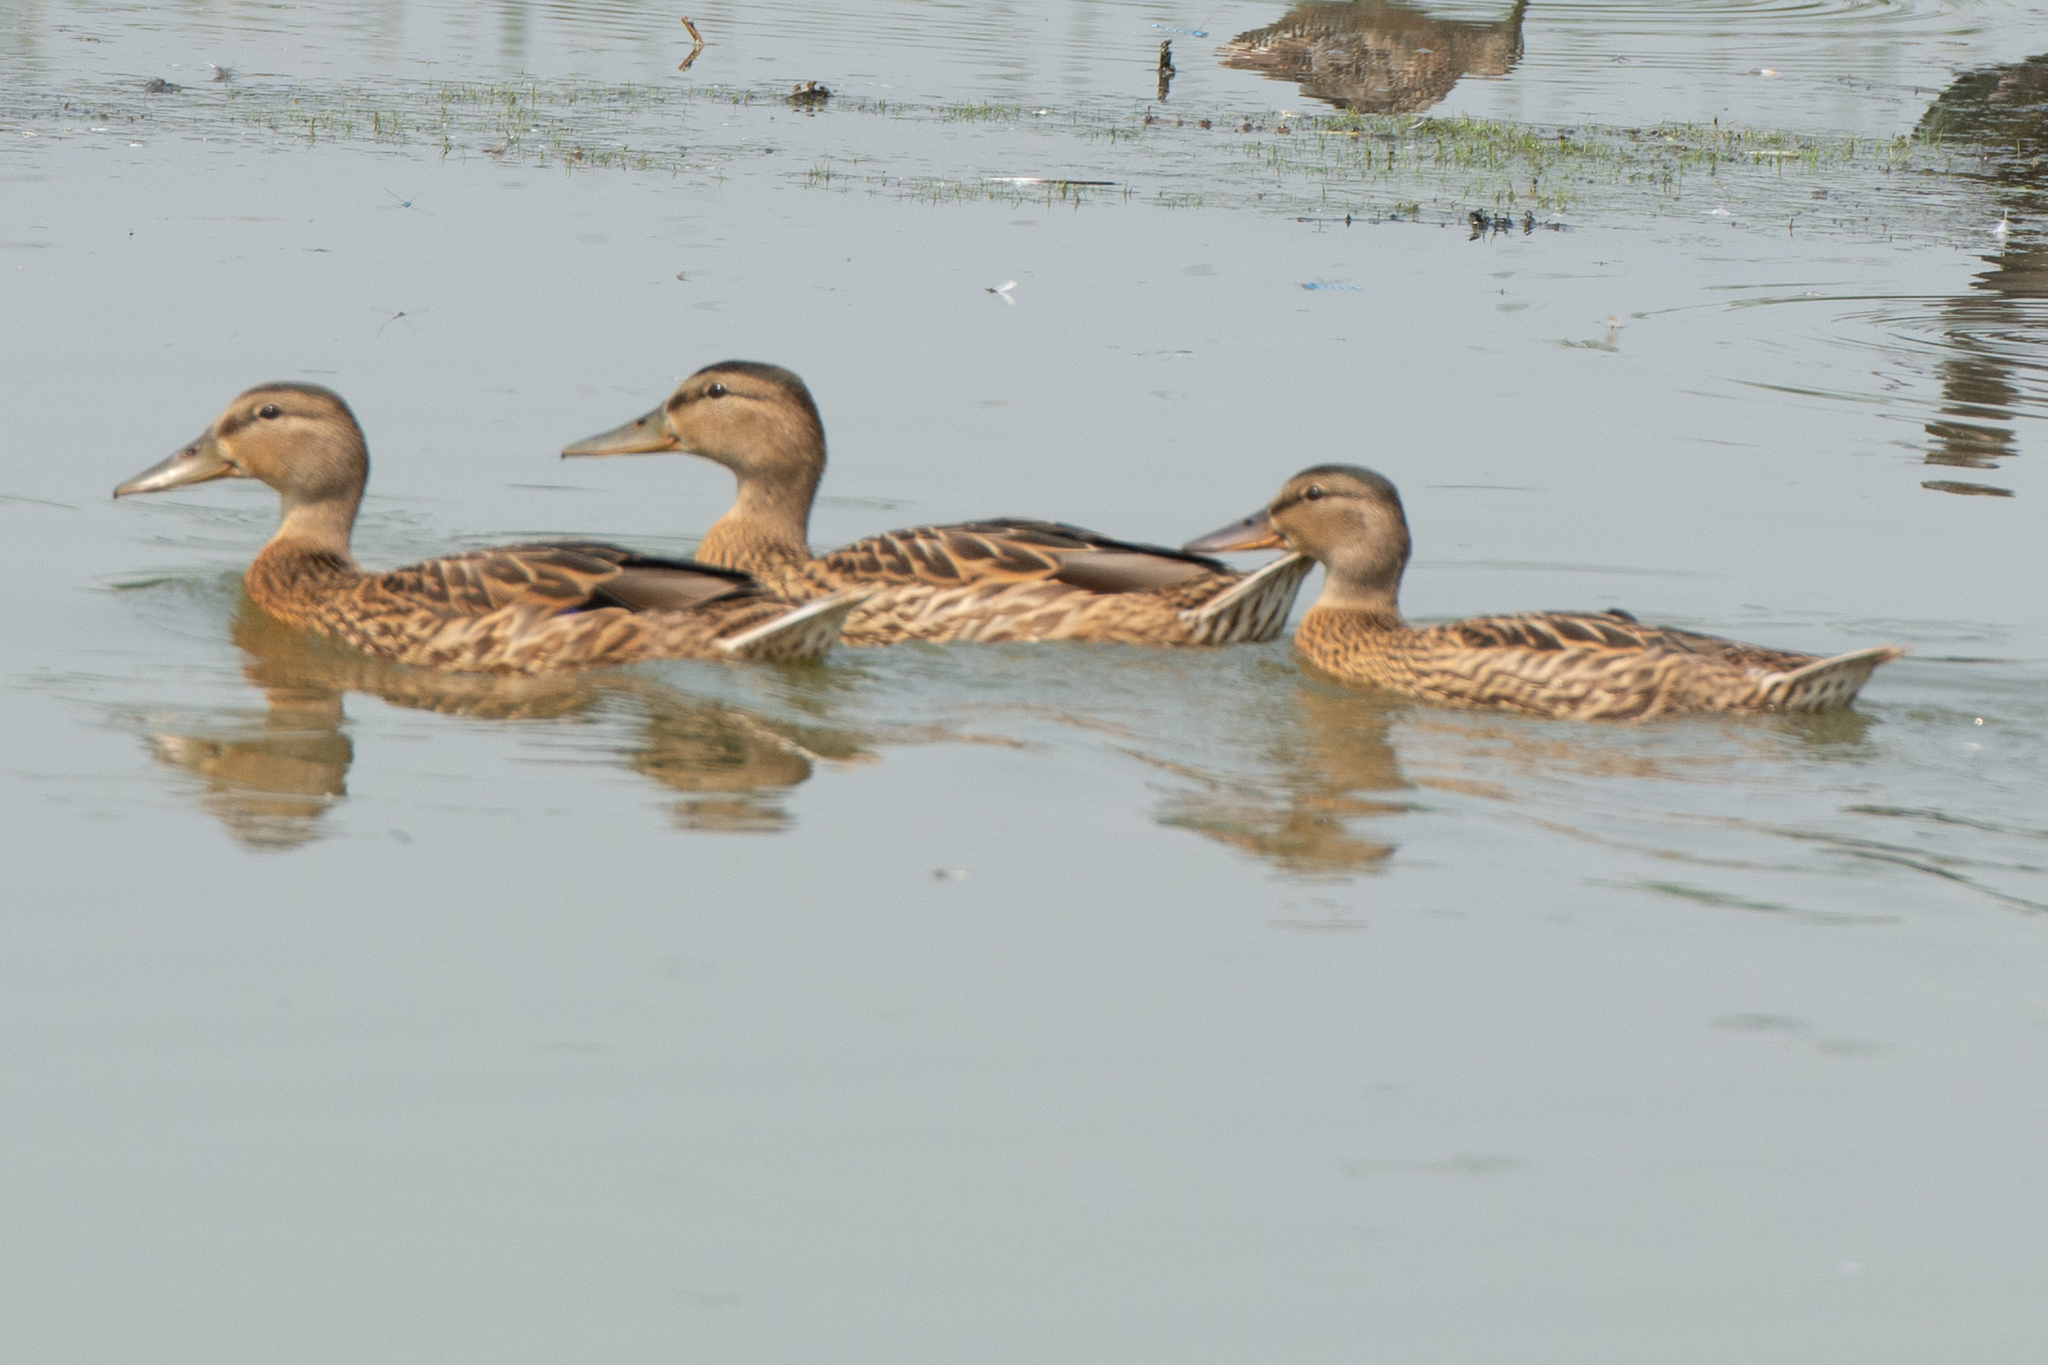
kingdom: Animalia
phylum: Chordata
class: Aves
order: Anseriformes
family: Anatidae
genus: Anas
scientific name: Anas platyrhynchos
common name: Mallard
